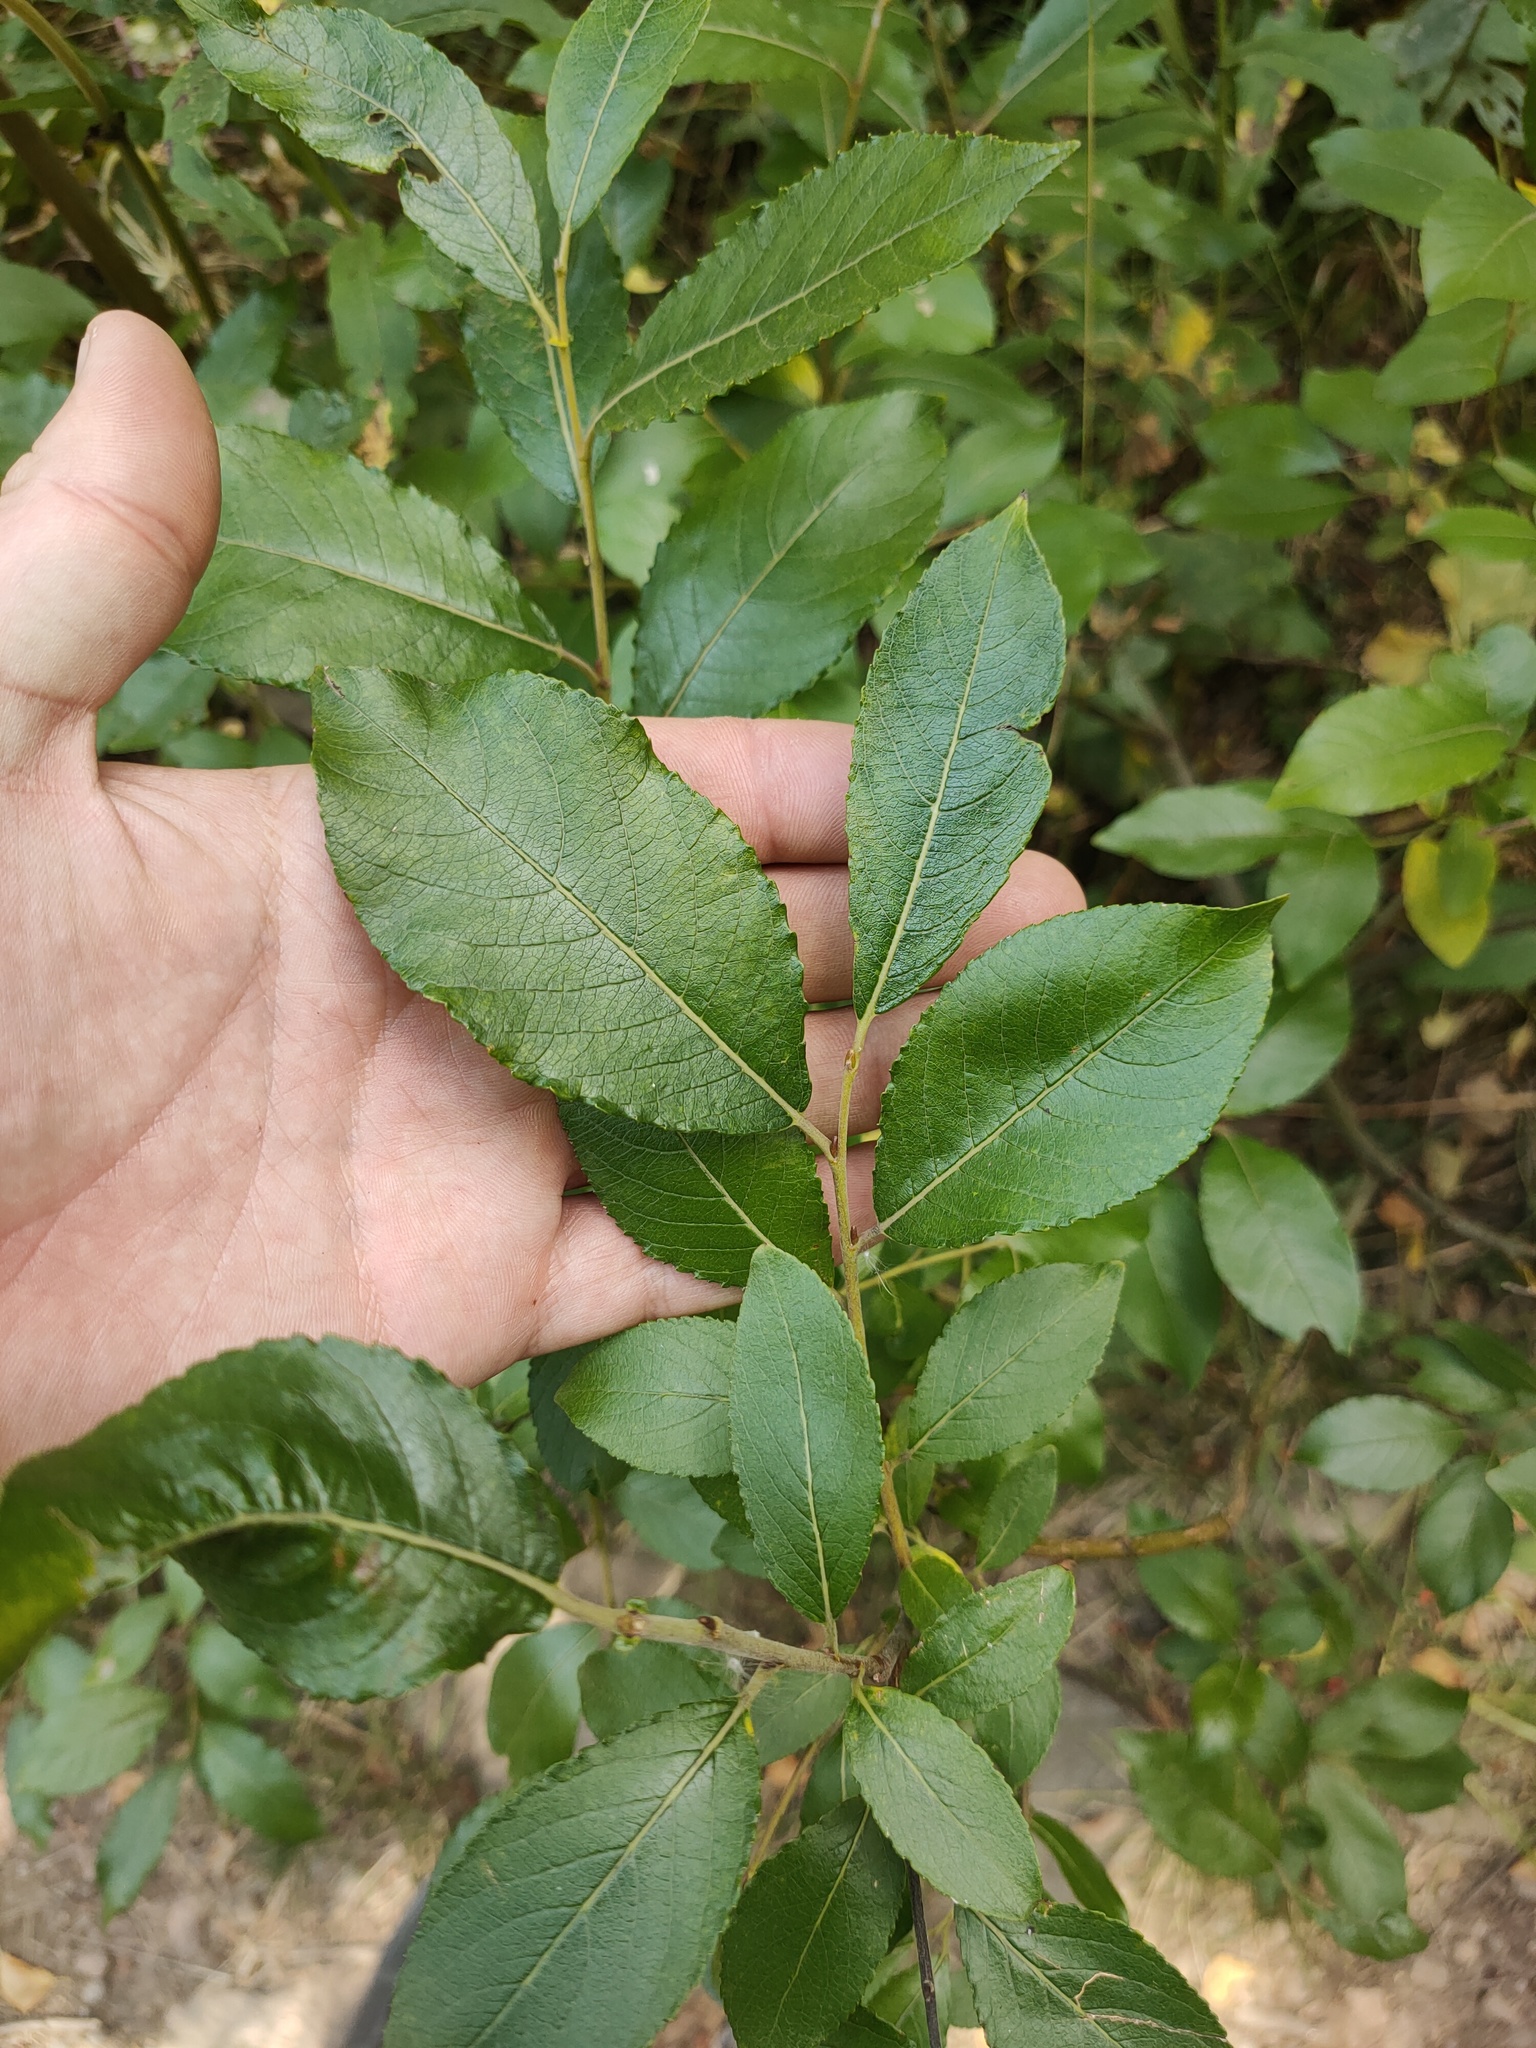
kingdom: Plantae
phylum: Tracheophyta
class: Magnoliopsida
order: Malpighiales
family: Salicaceae
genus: Salix
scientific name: Salix myrsinifolia
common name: Dark-leaved willow
